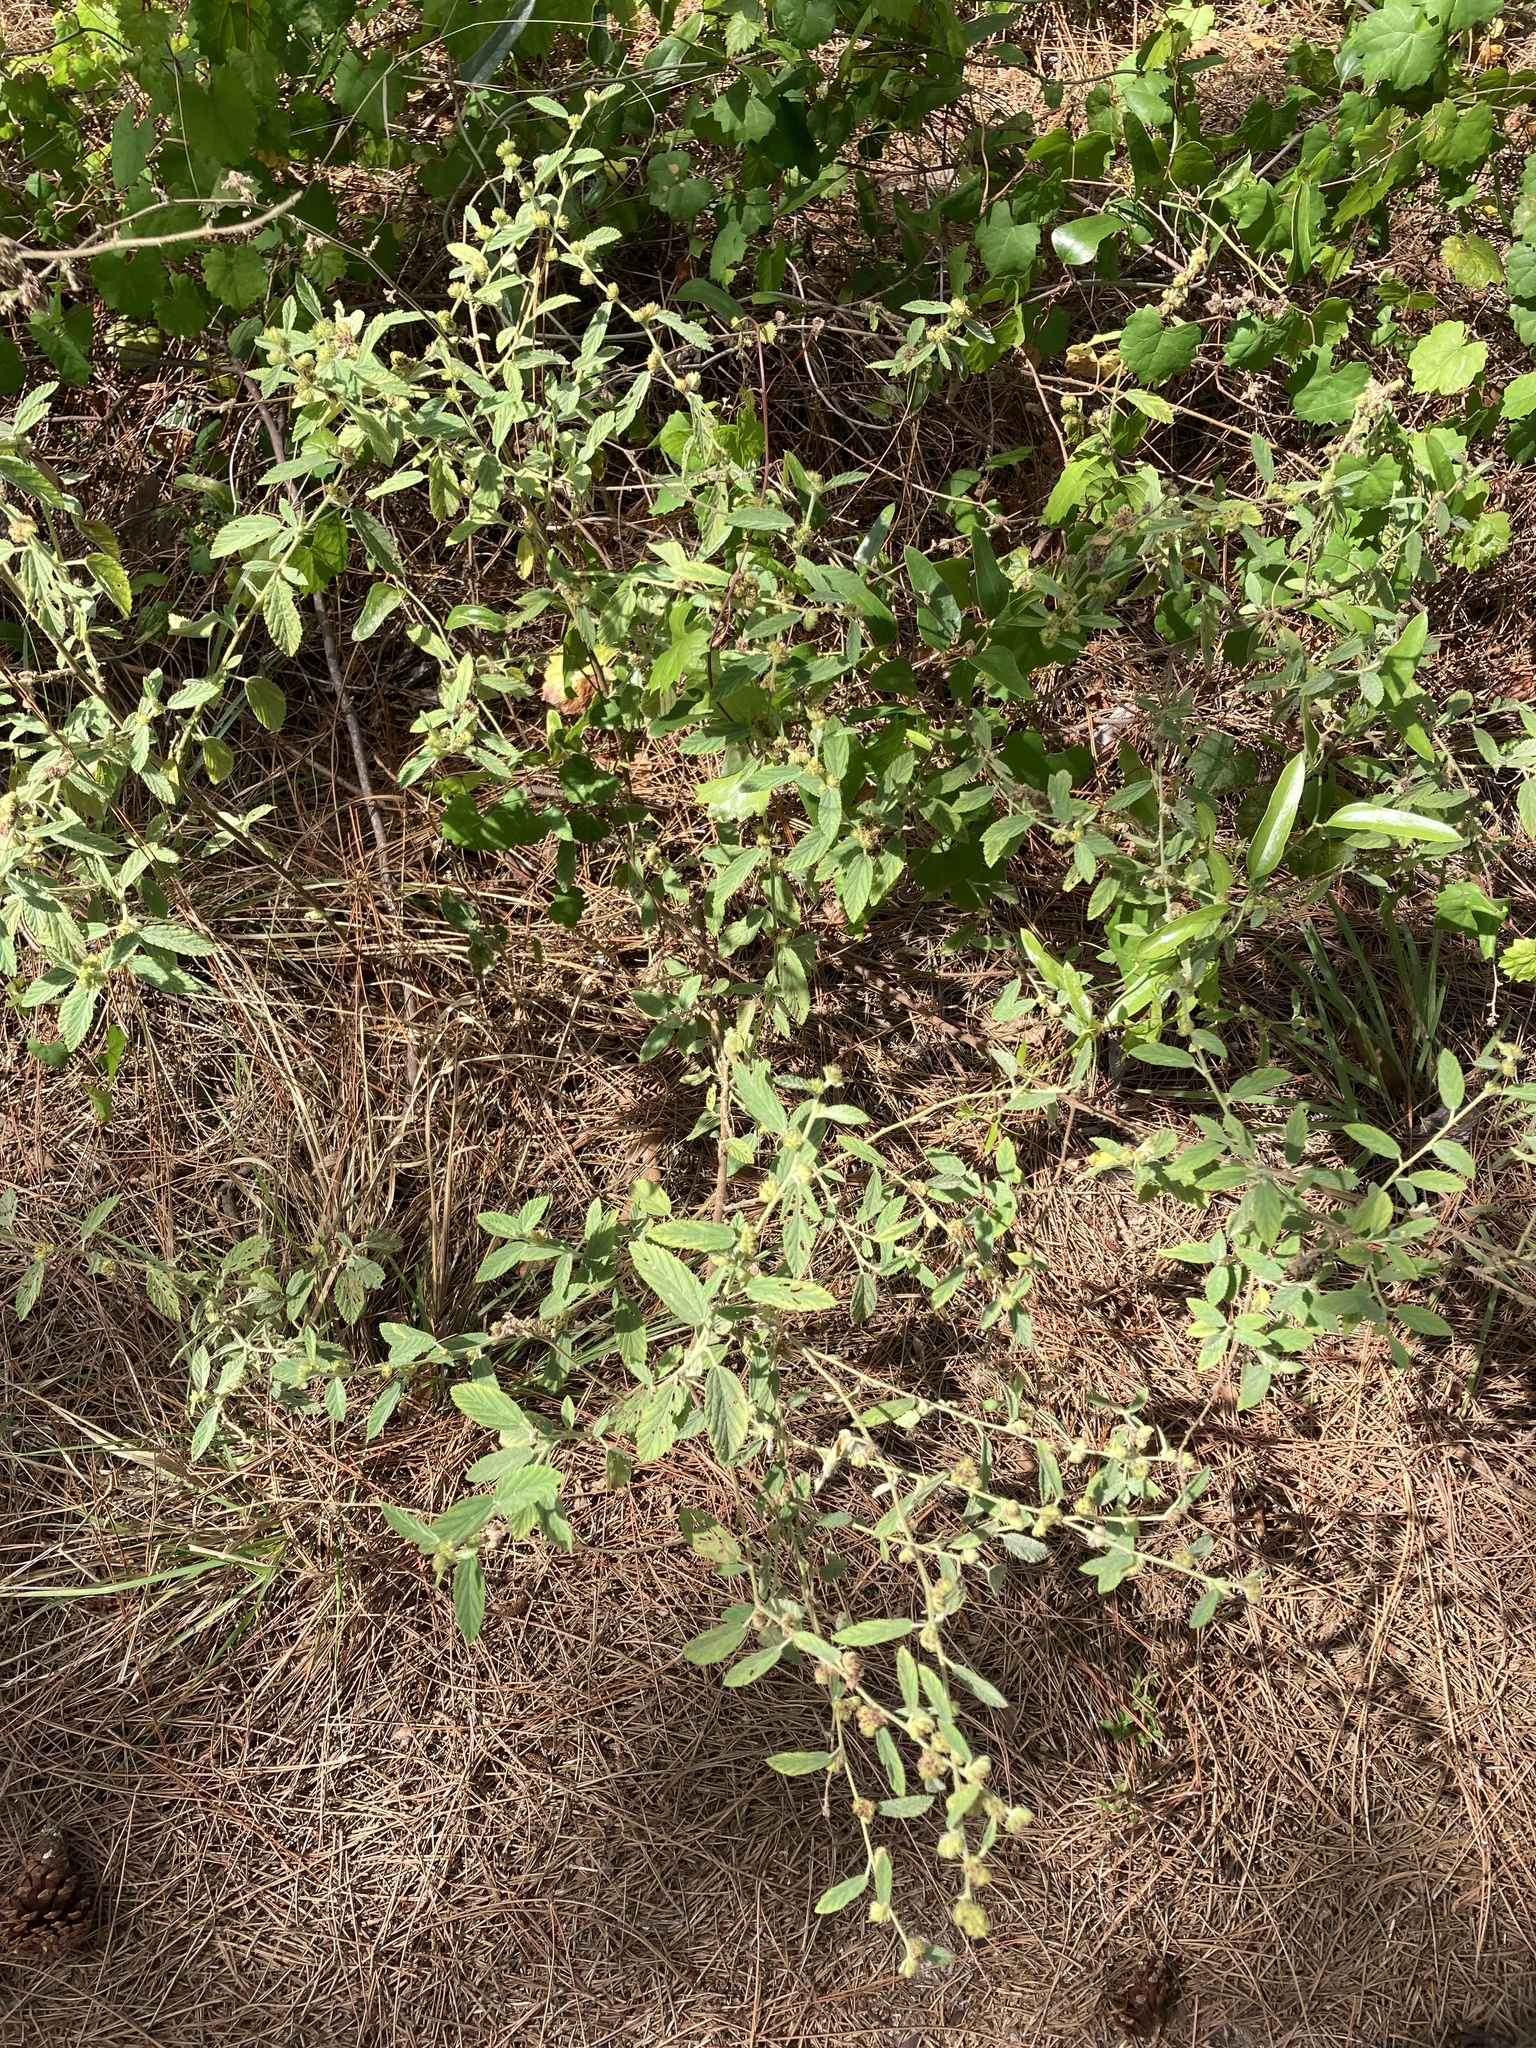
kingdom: Plantae
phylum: Tracheophyta
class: Magnoliopsida
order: Malvales
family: Malvaceae
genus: Waltheria
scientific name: Waltheria indica
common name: Leather-coat
